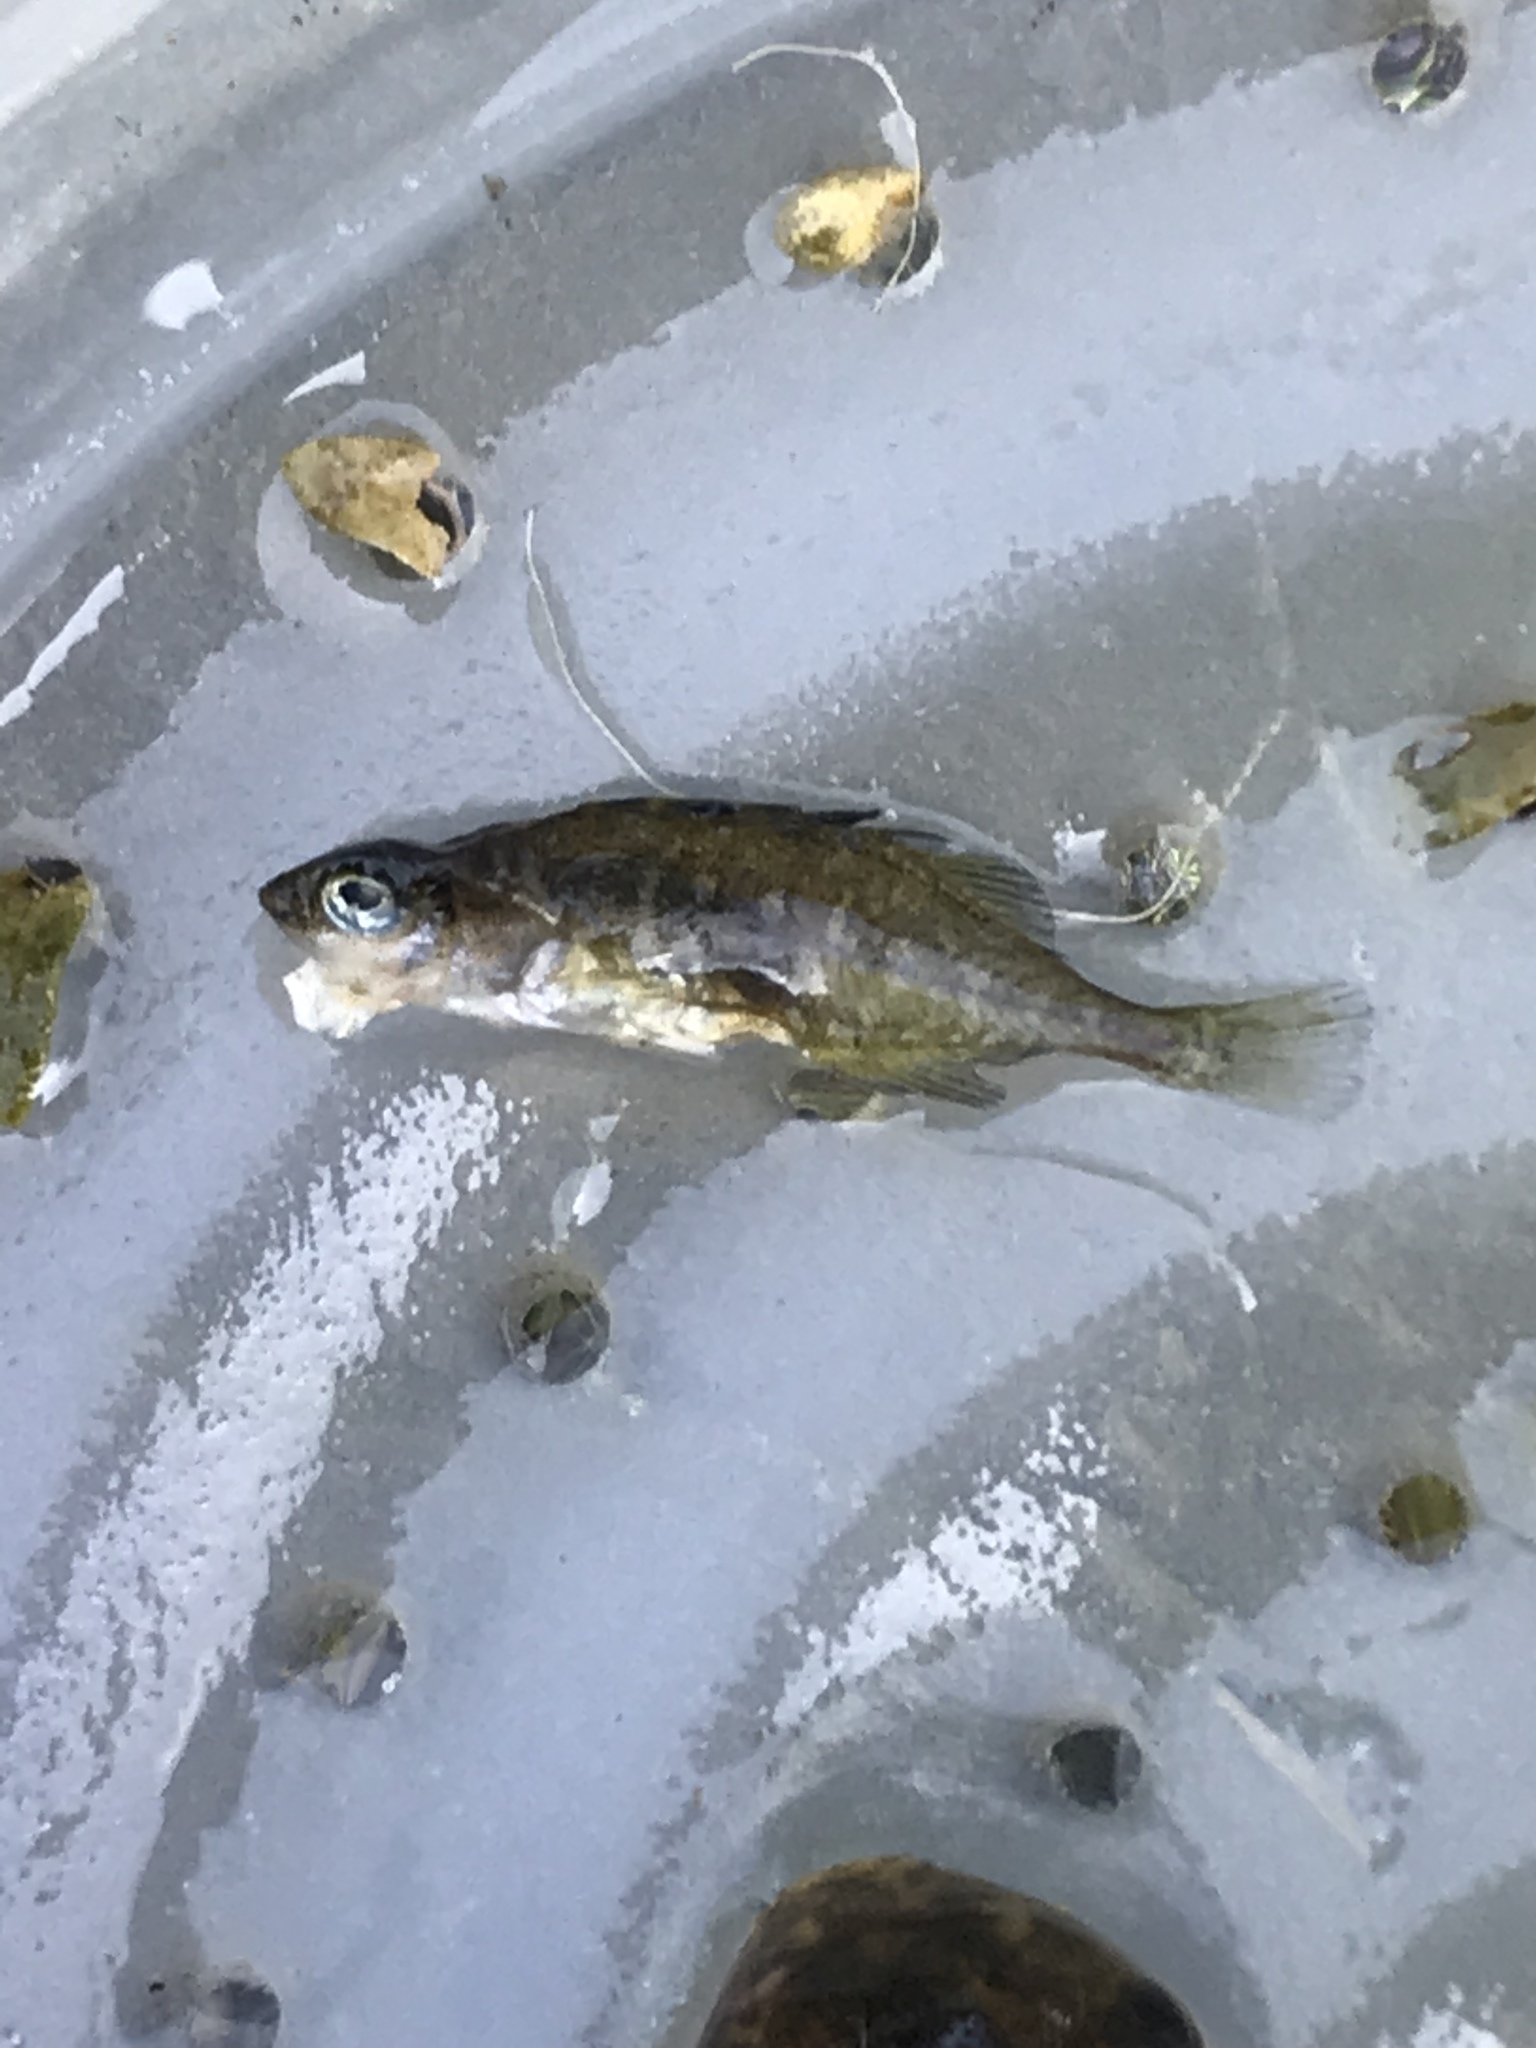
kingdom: Animalia
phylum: Chordata
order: Gasterosteiformes
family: Gasterosteidae
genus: Culaea
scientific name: Culaea inconstans
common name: Brook stickleback
